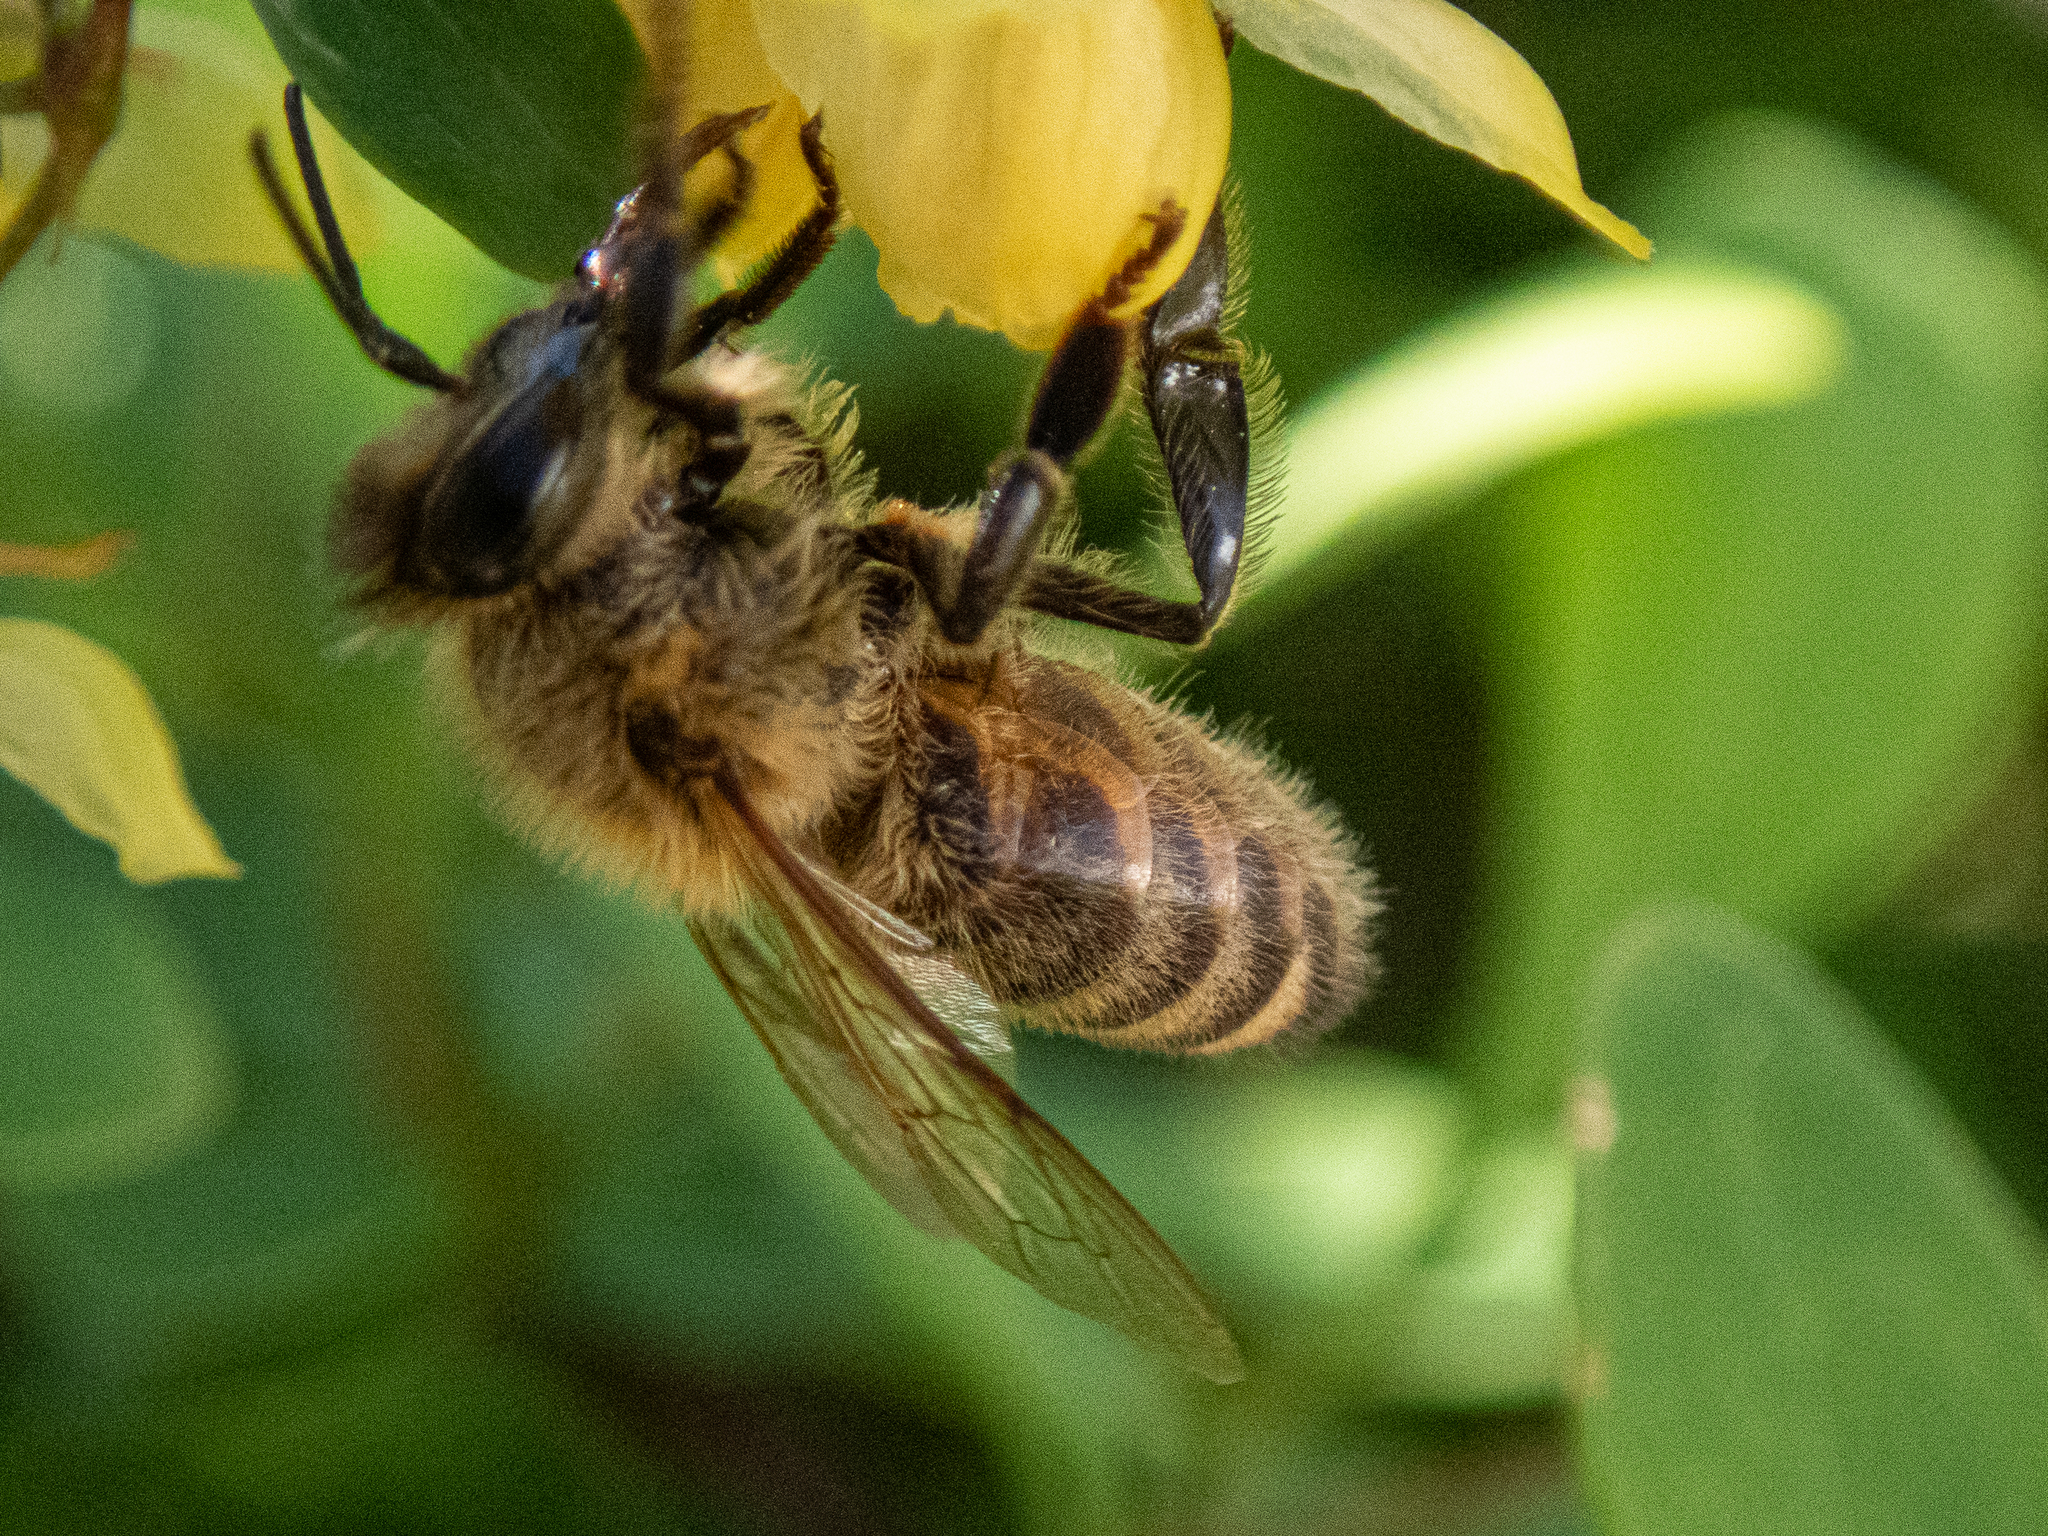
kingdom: Animalia
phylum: Arthropoda
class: Insecta
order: Hymenoptera
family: Apidae
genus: Apis
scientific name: Apis mellifera
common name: Honey bee
